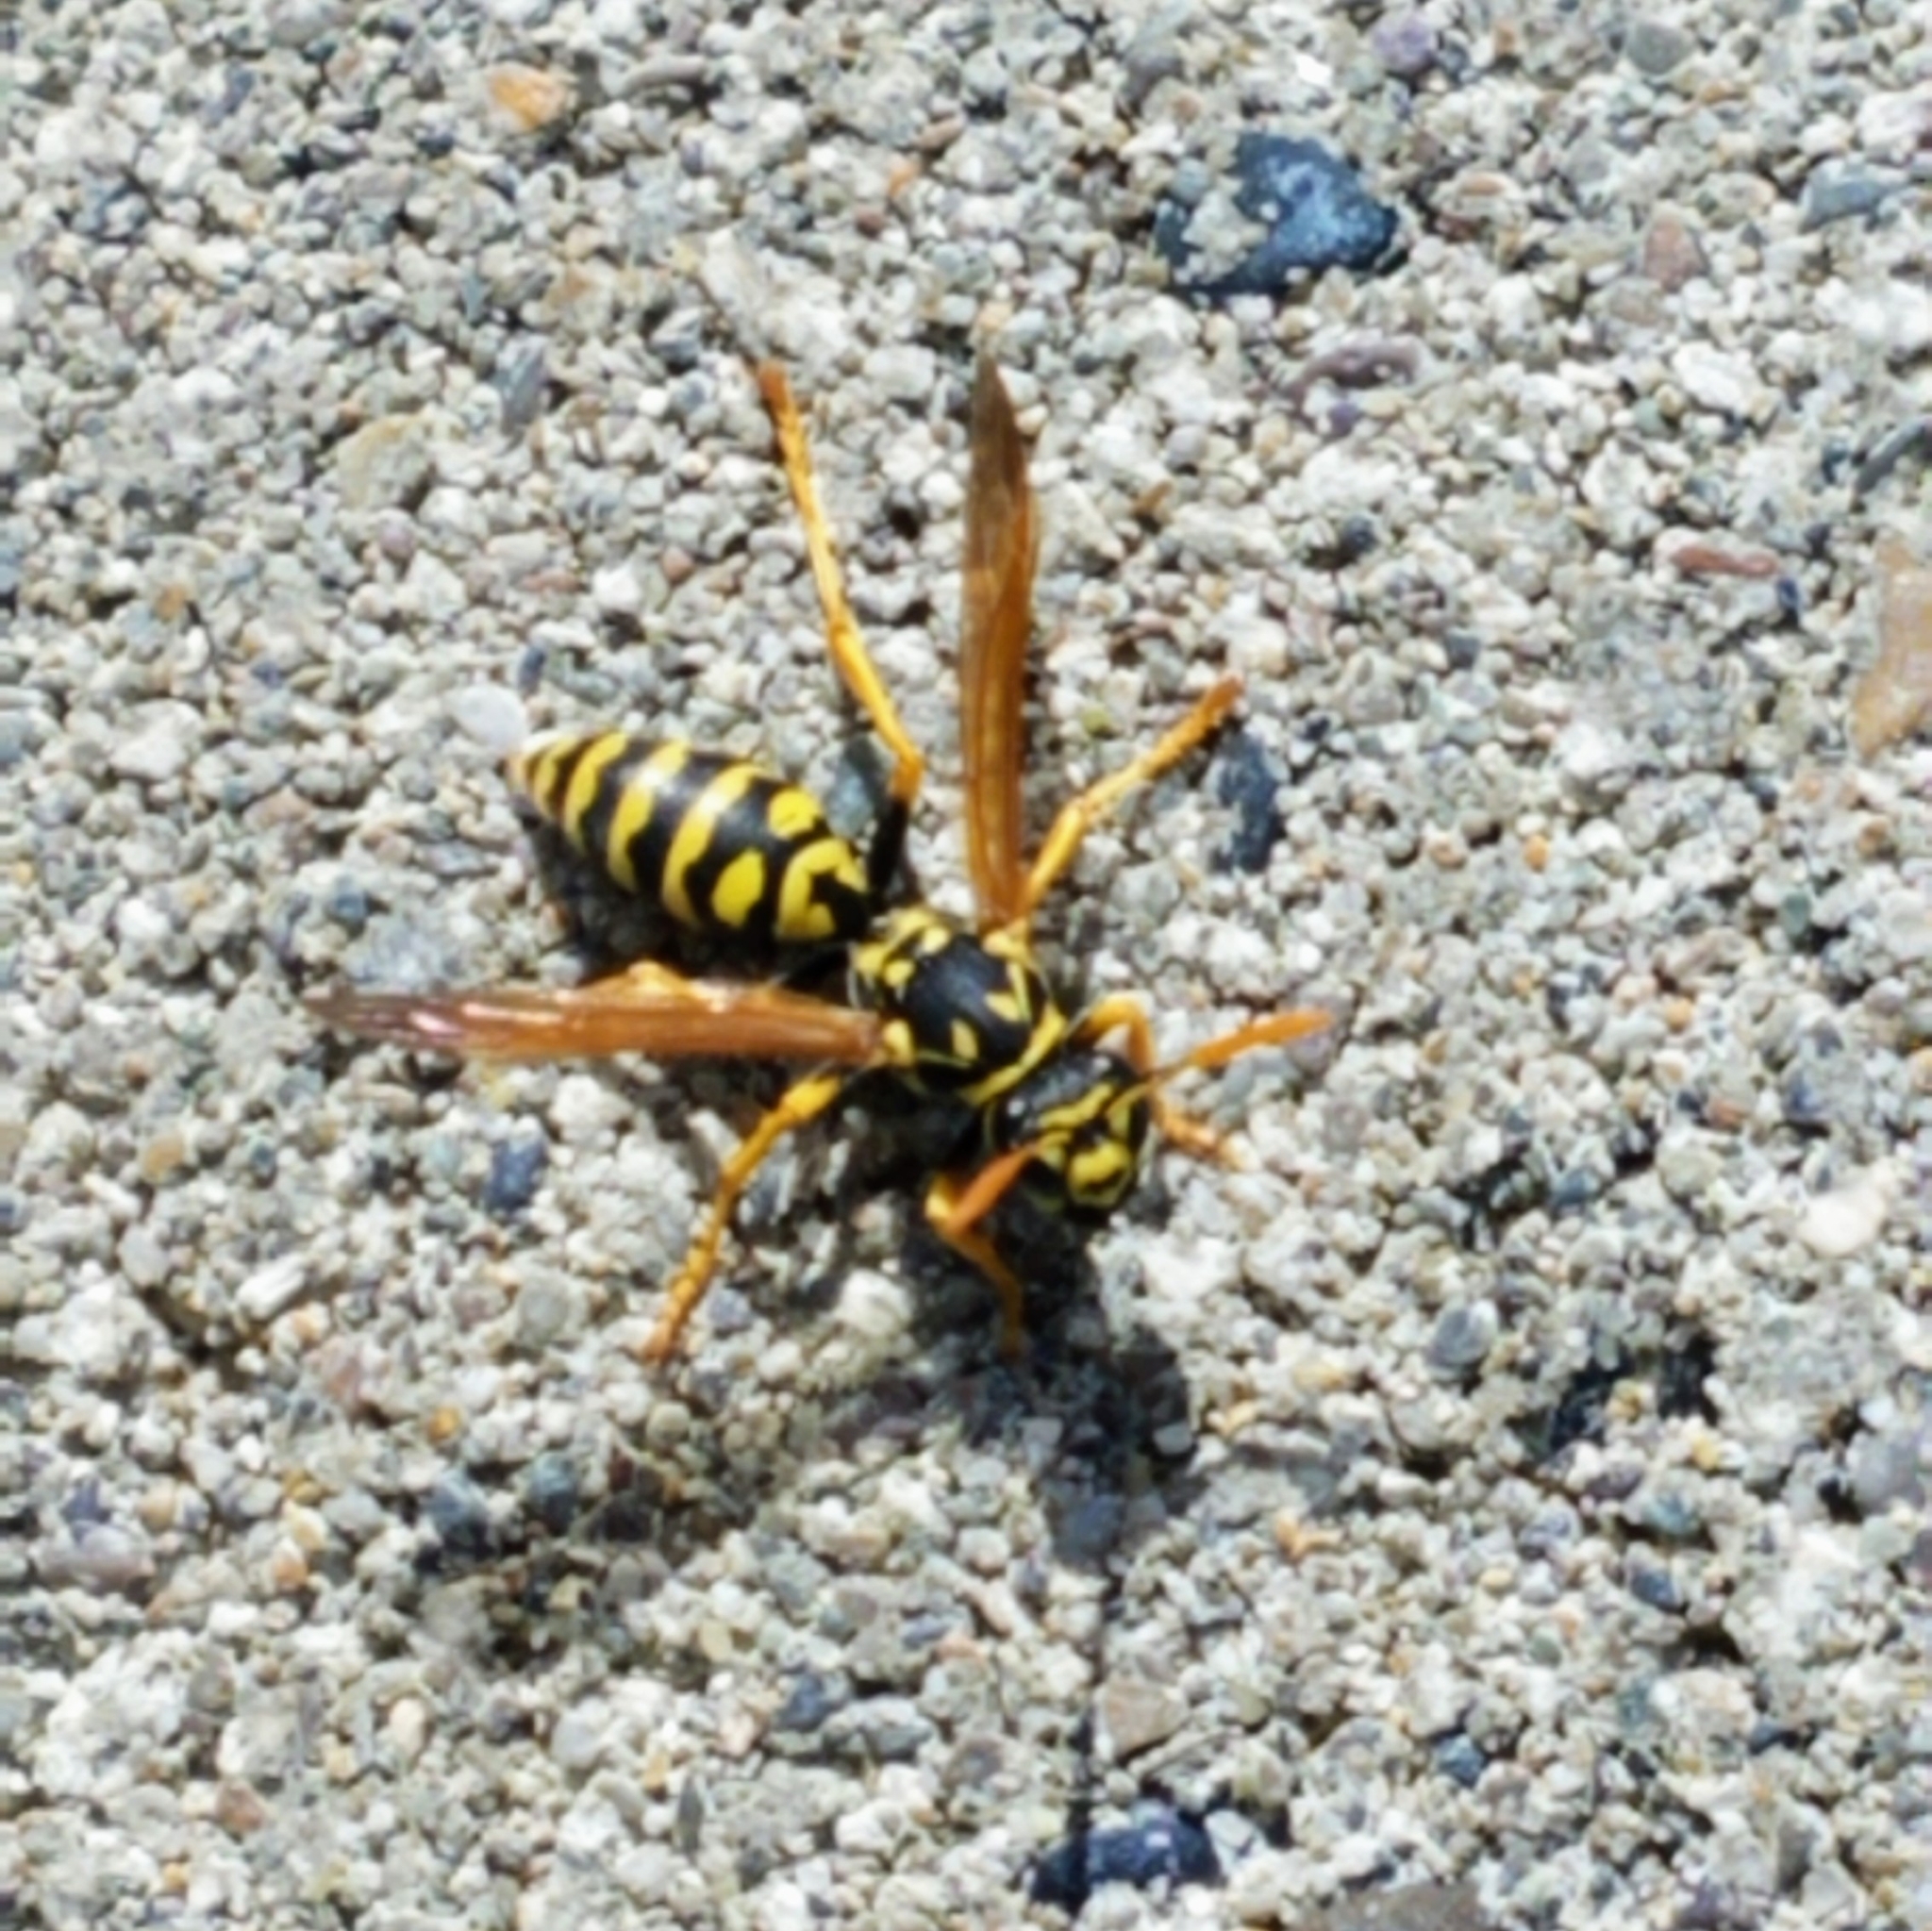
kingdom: Animalia
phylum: Arthropoda
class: Insecta
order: Hymenoptera
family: Eumenidae
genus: Polistes
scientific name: Polistes dominula
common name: Paper wasp
